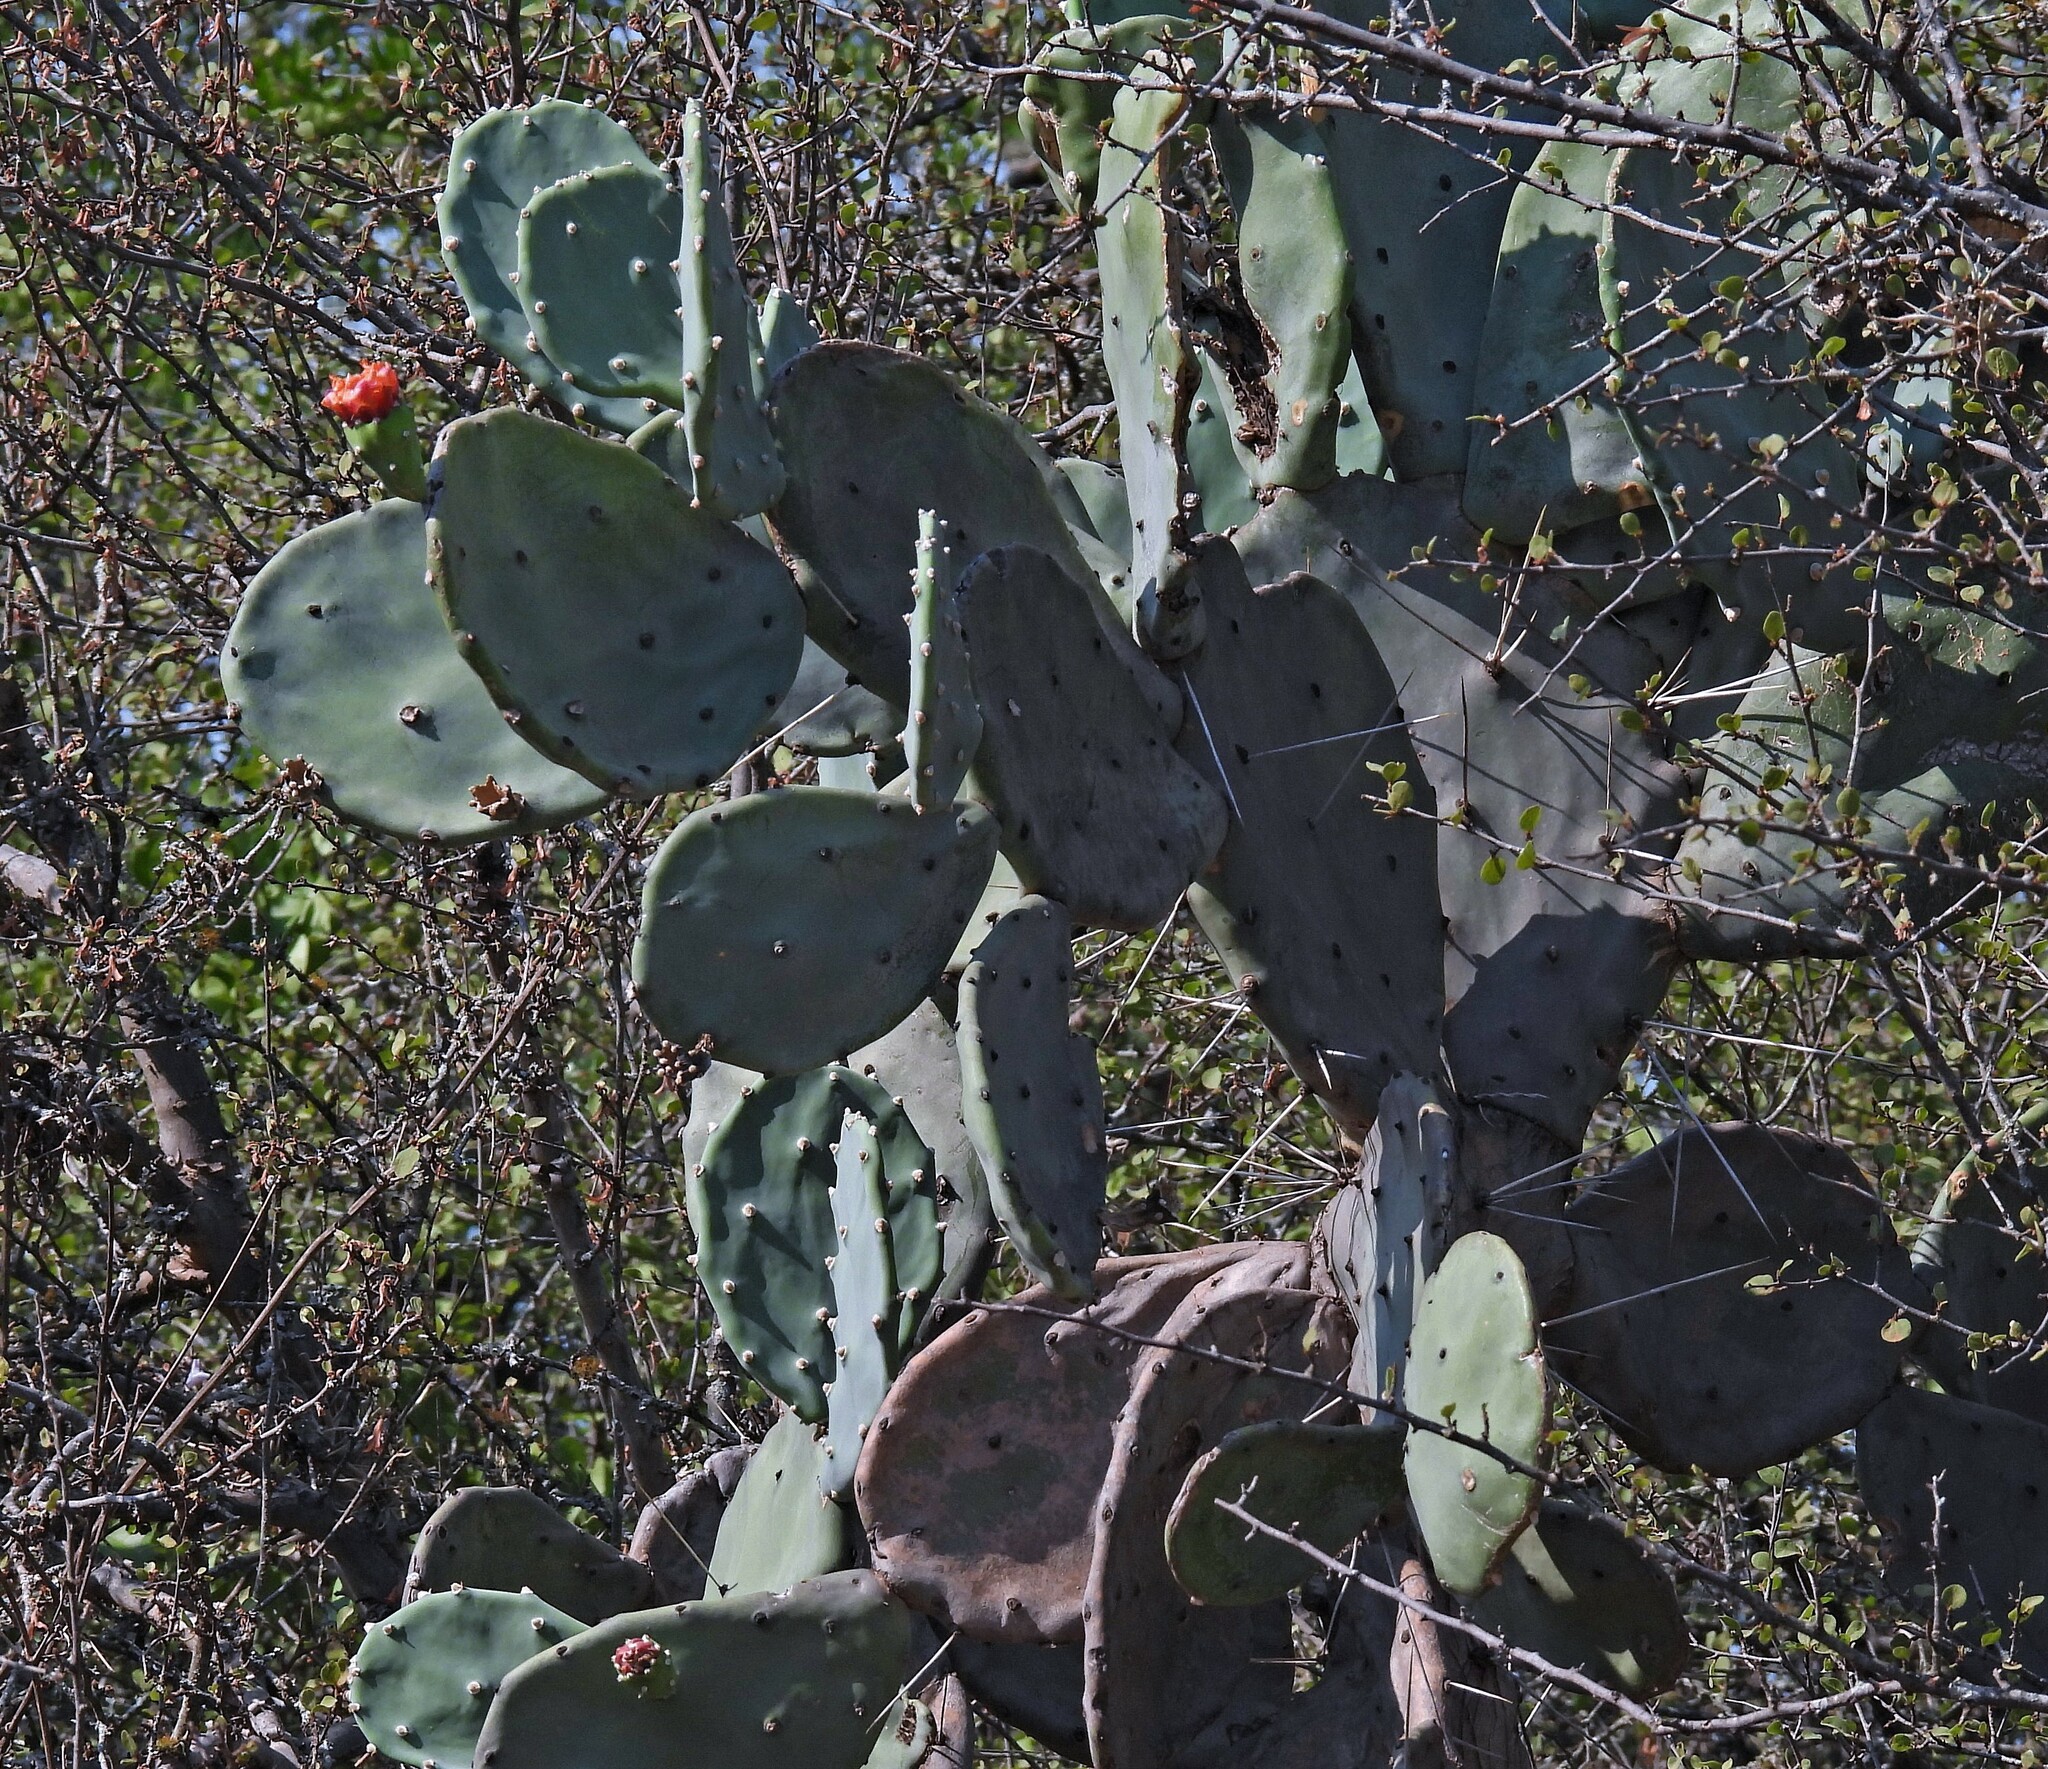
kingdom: Plantae
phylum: Tracheophyta
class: Magnoliopsida
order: Caryophyllales
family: Cactaceae
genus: Opuntia
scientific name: Opuntia quimilo
